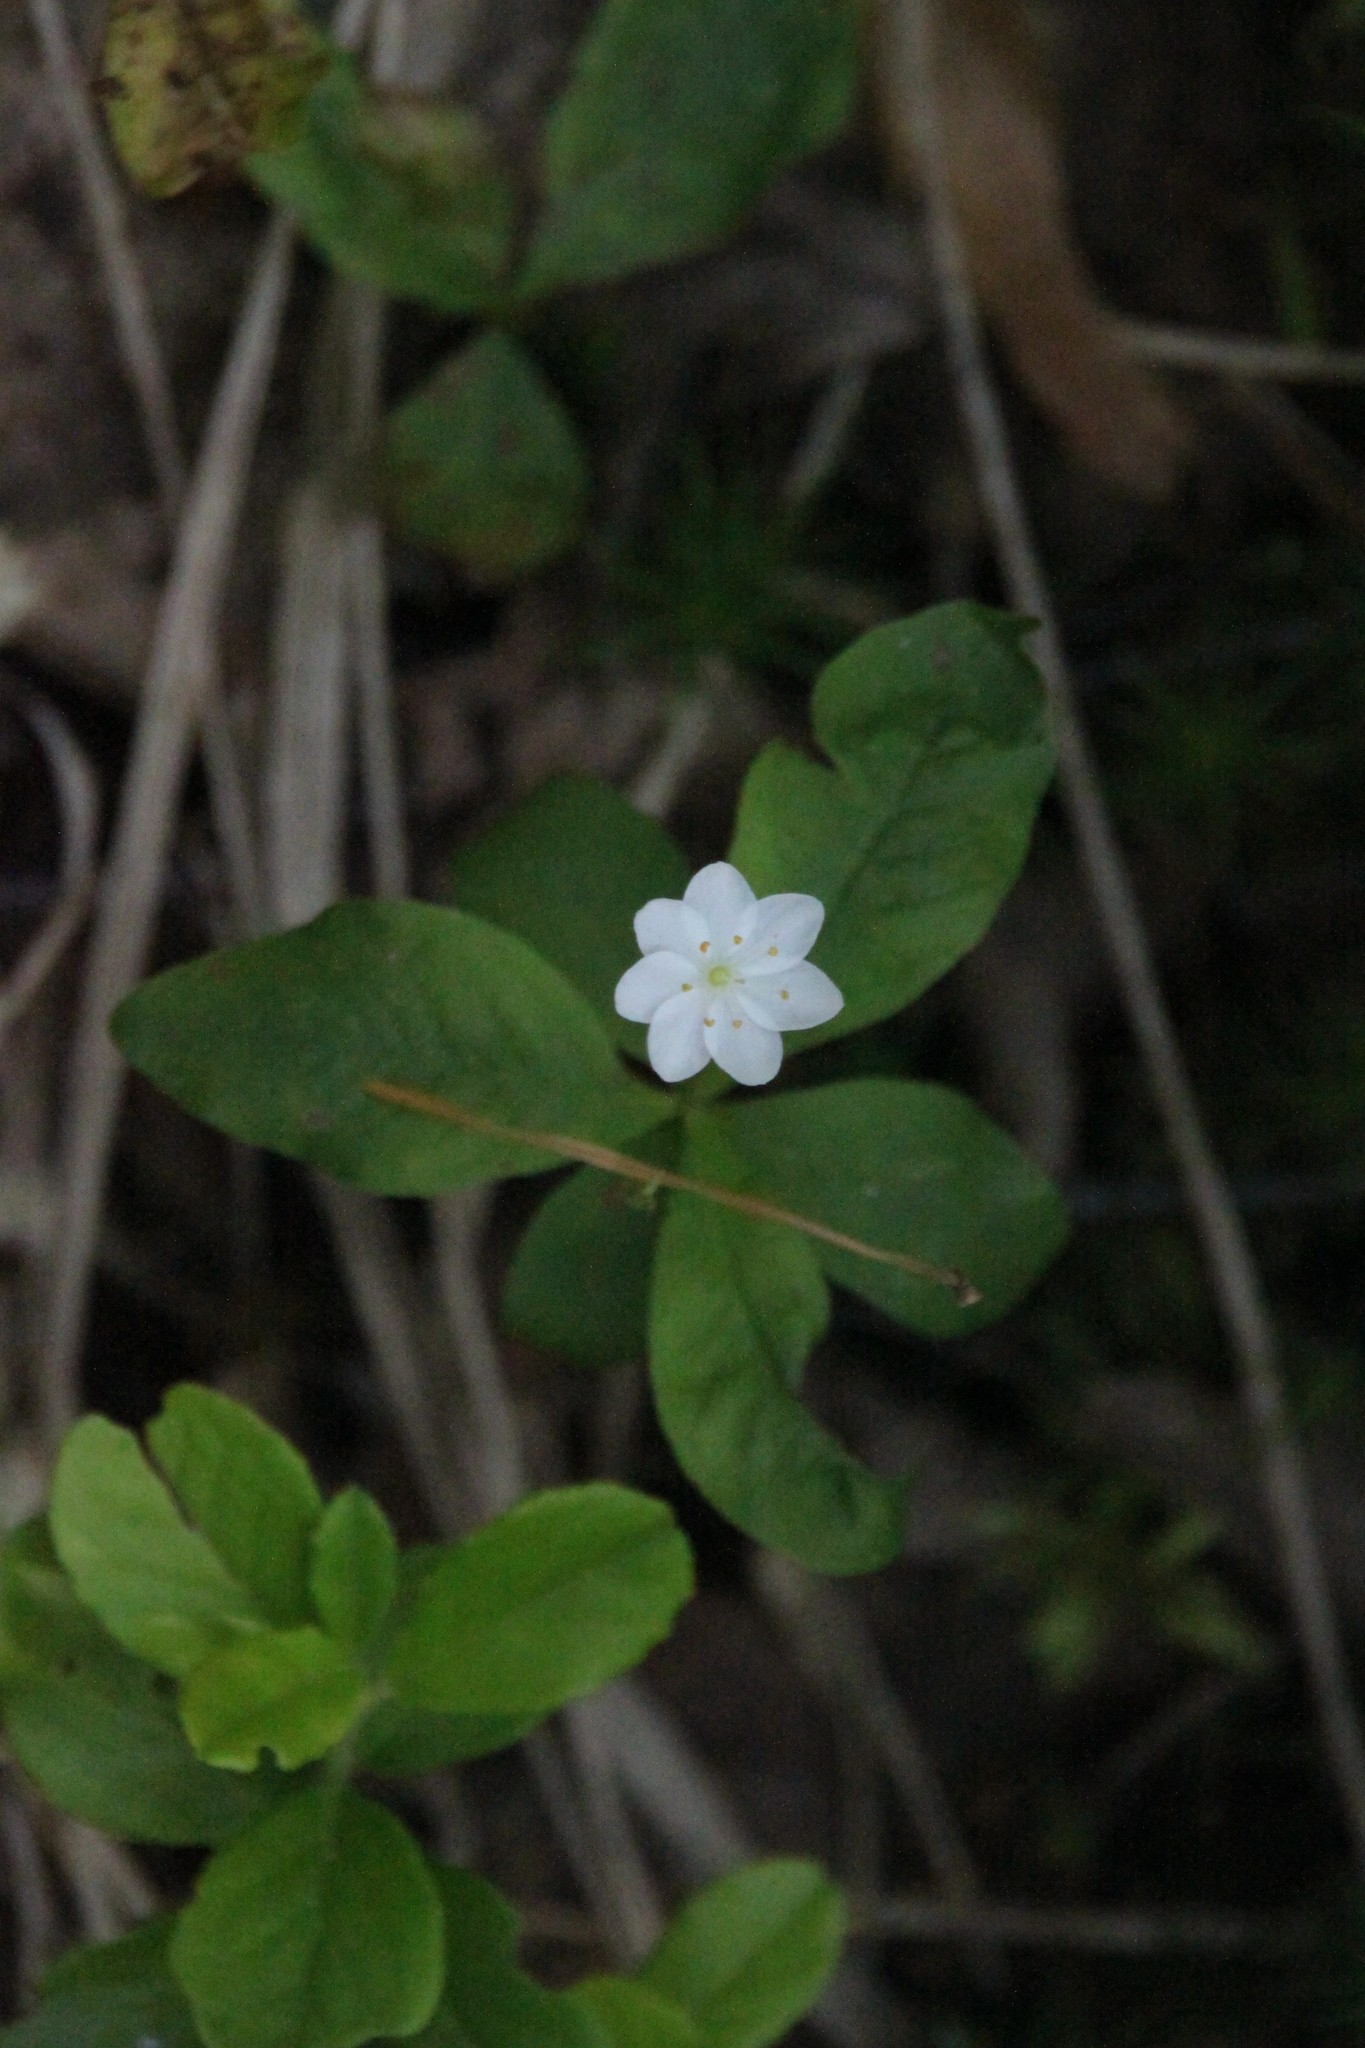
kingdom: Plantae
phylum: Tracheophyta
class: Magnoliopsida
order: Ericales
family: Primulaceae
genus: Lysimachia
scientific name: Lysimachia europaea
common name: Arctic starflower
